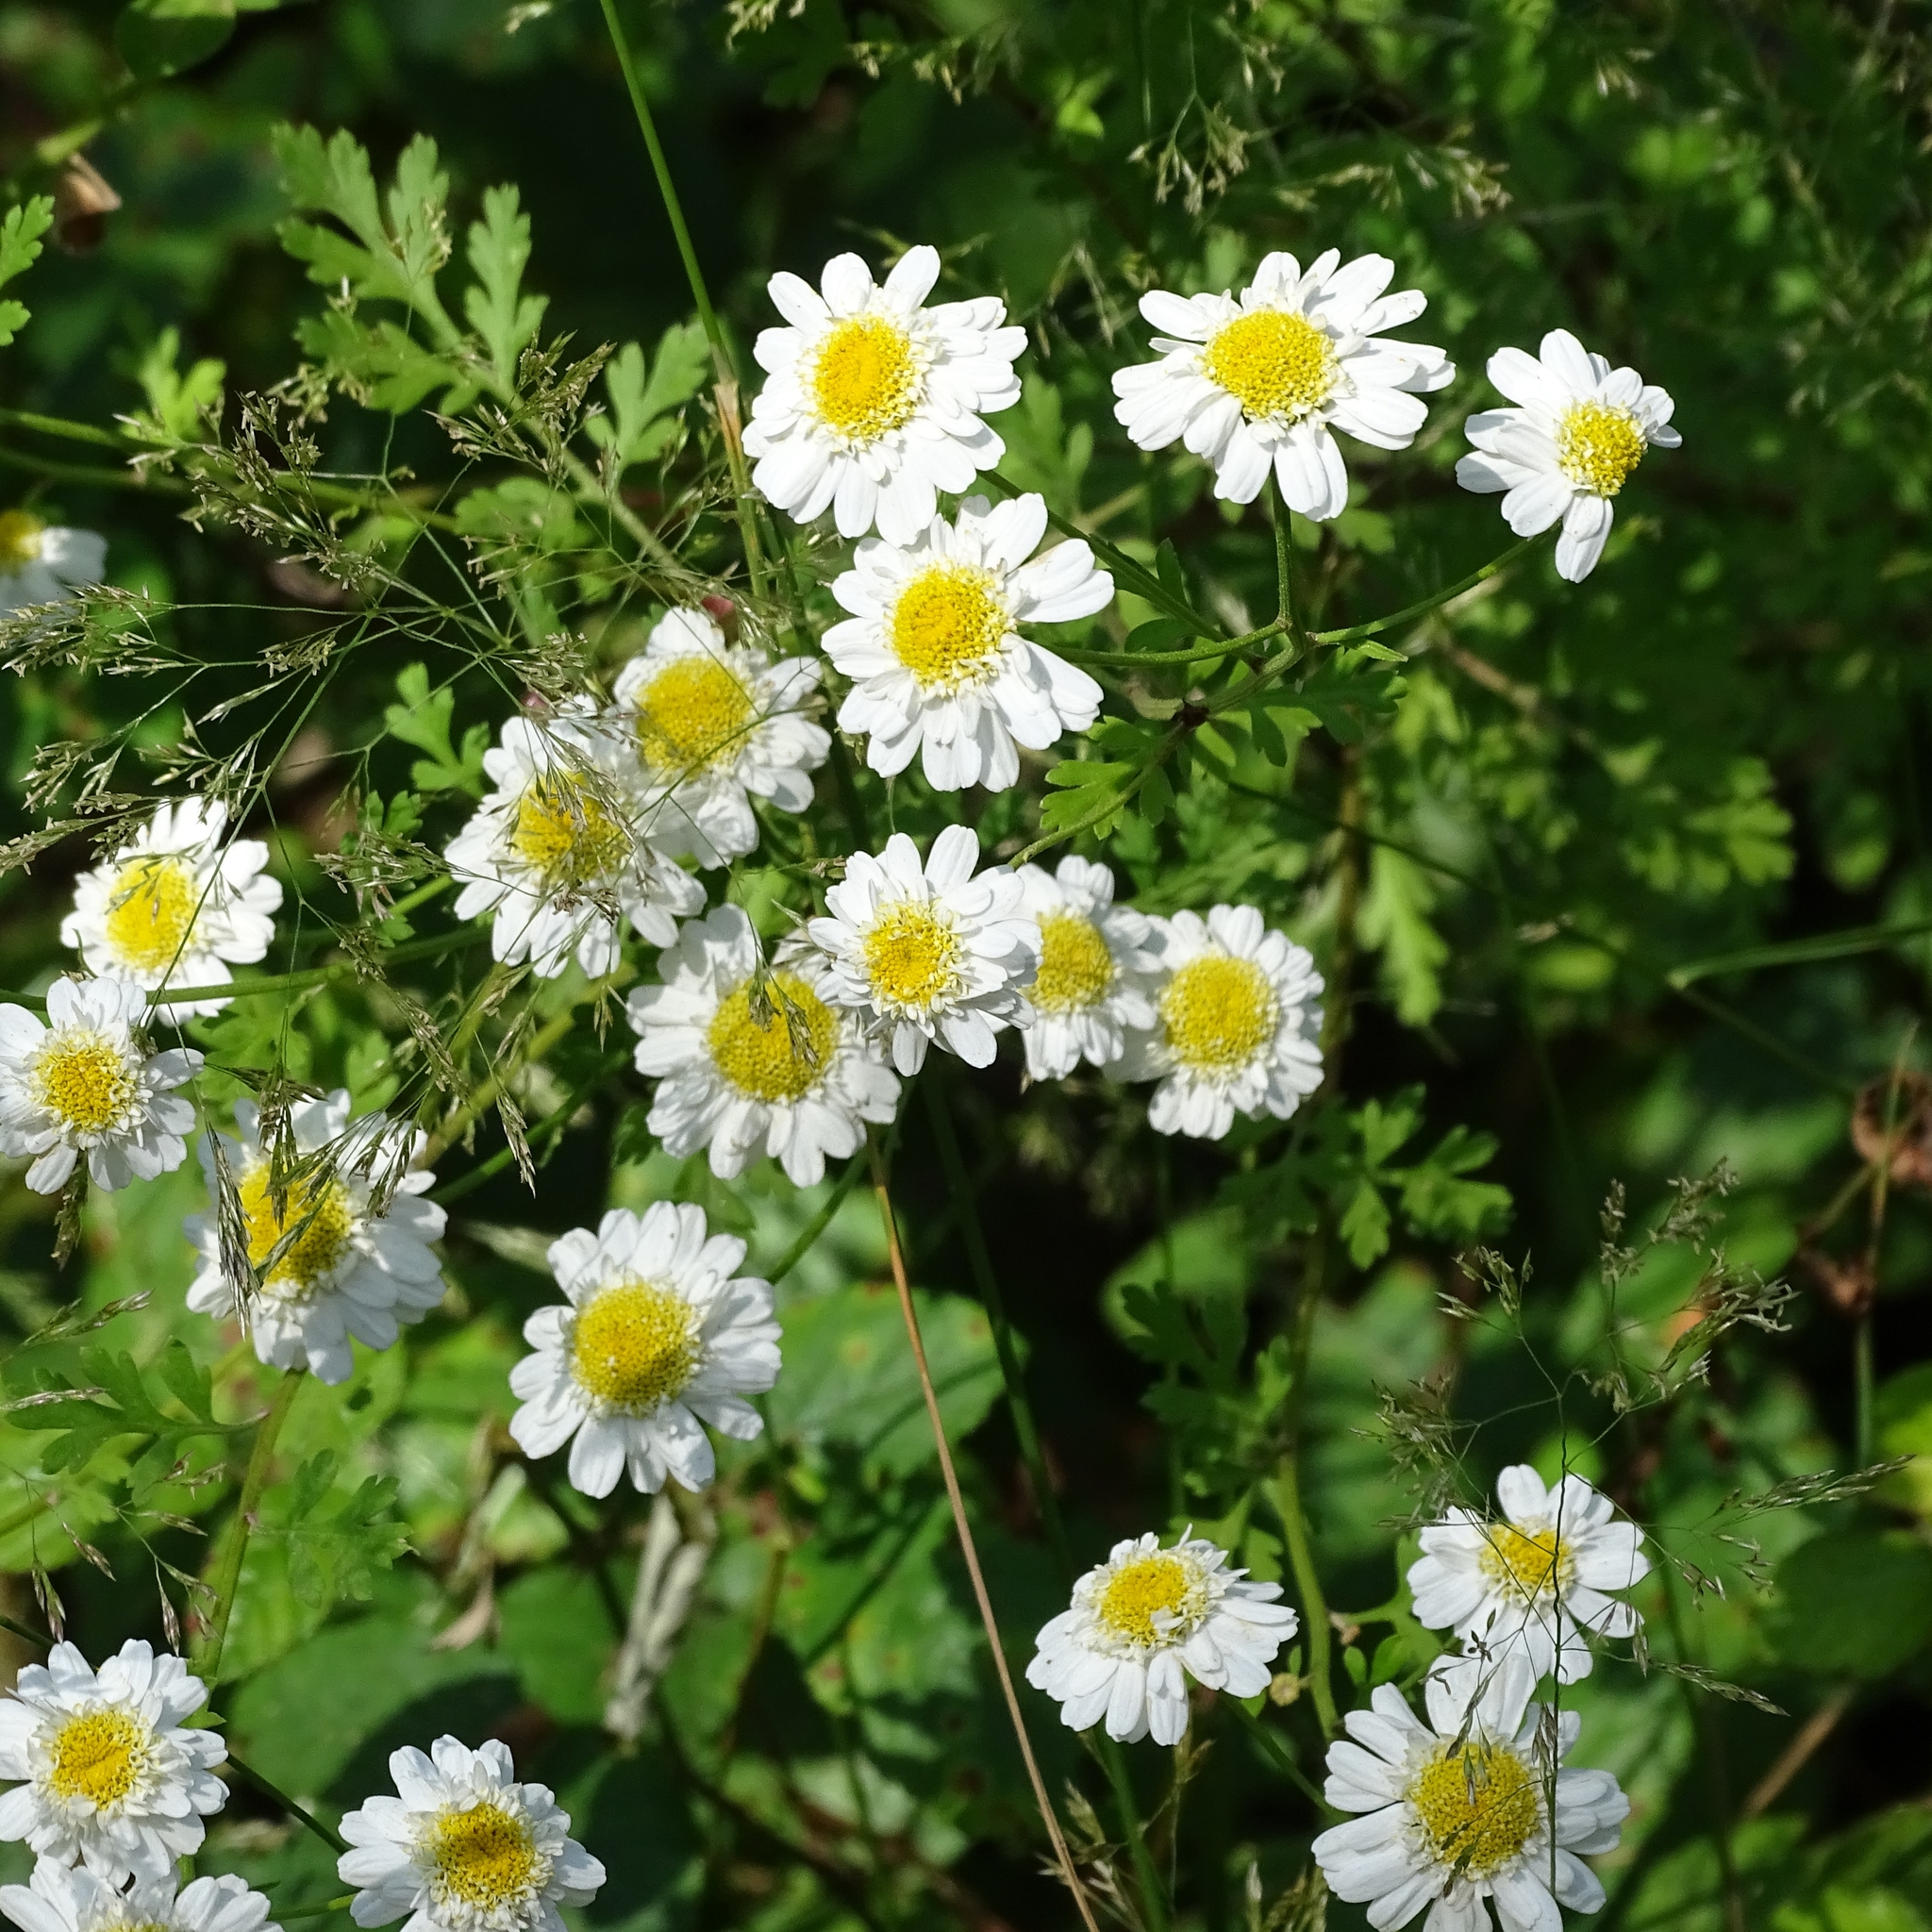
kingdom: Plantae
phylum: Tracheophyta
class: Magnoliopsida
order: Asterales
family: Asteraceae
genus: Tanacetum
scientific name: Tanacetum parthenium
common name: Feverfew
